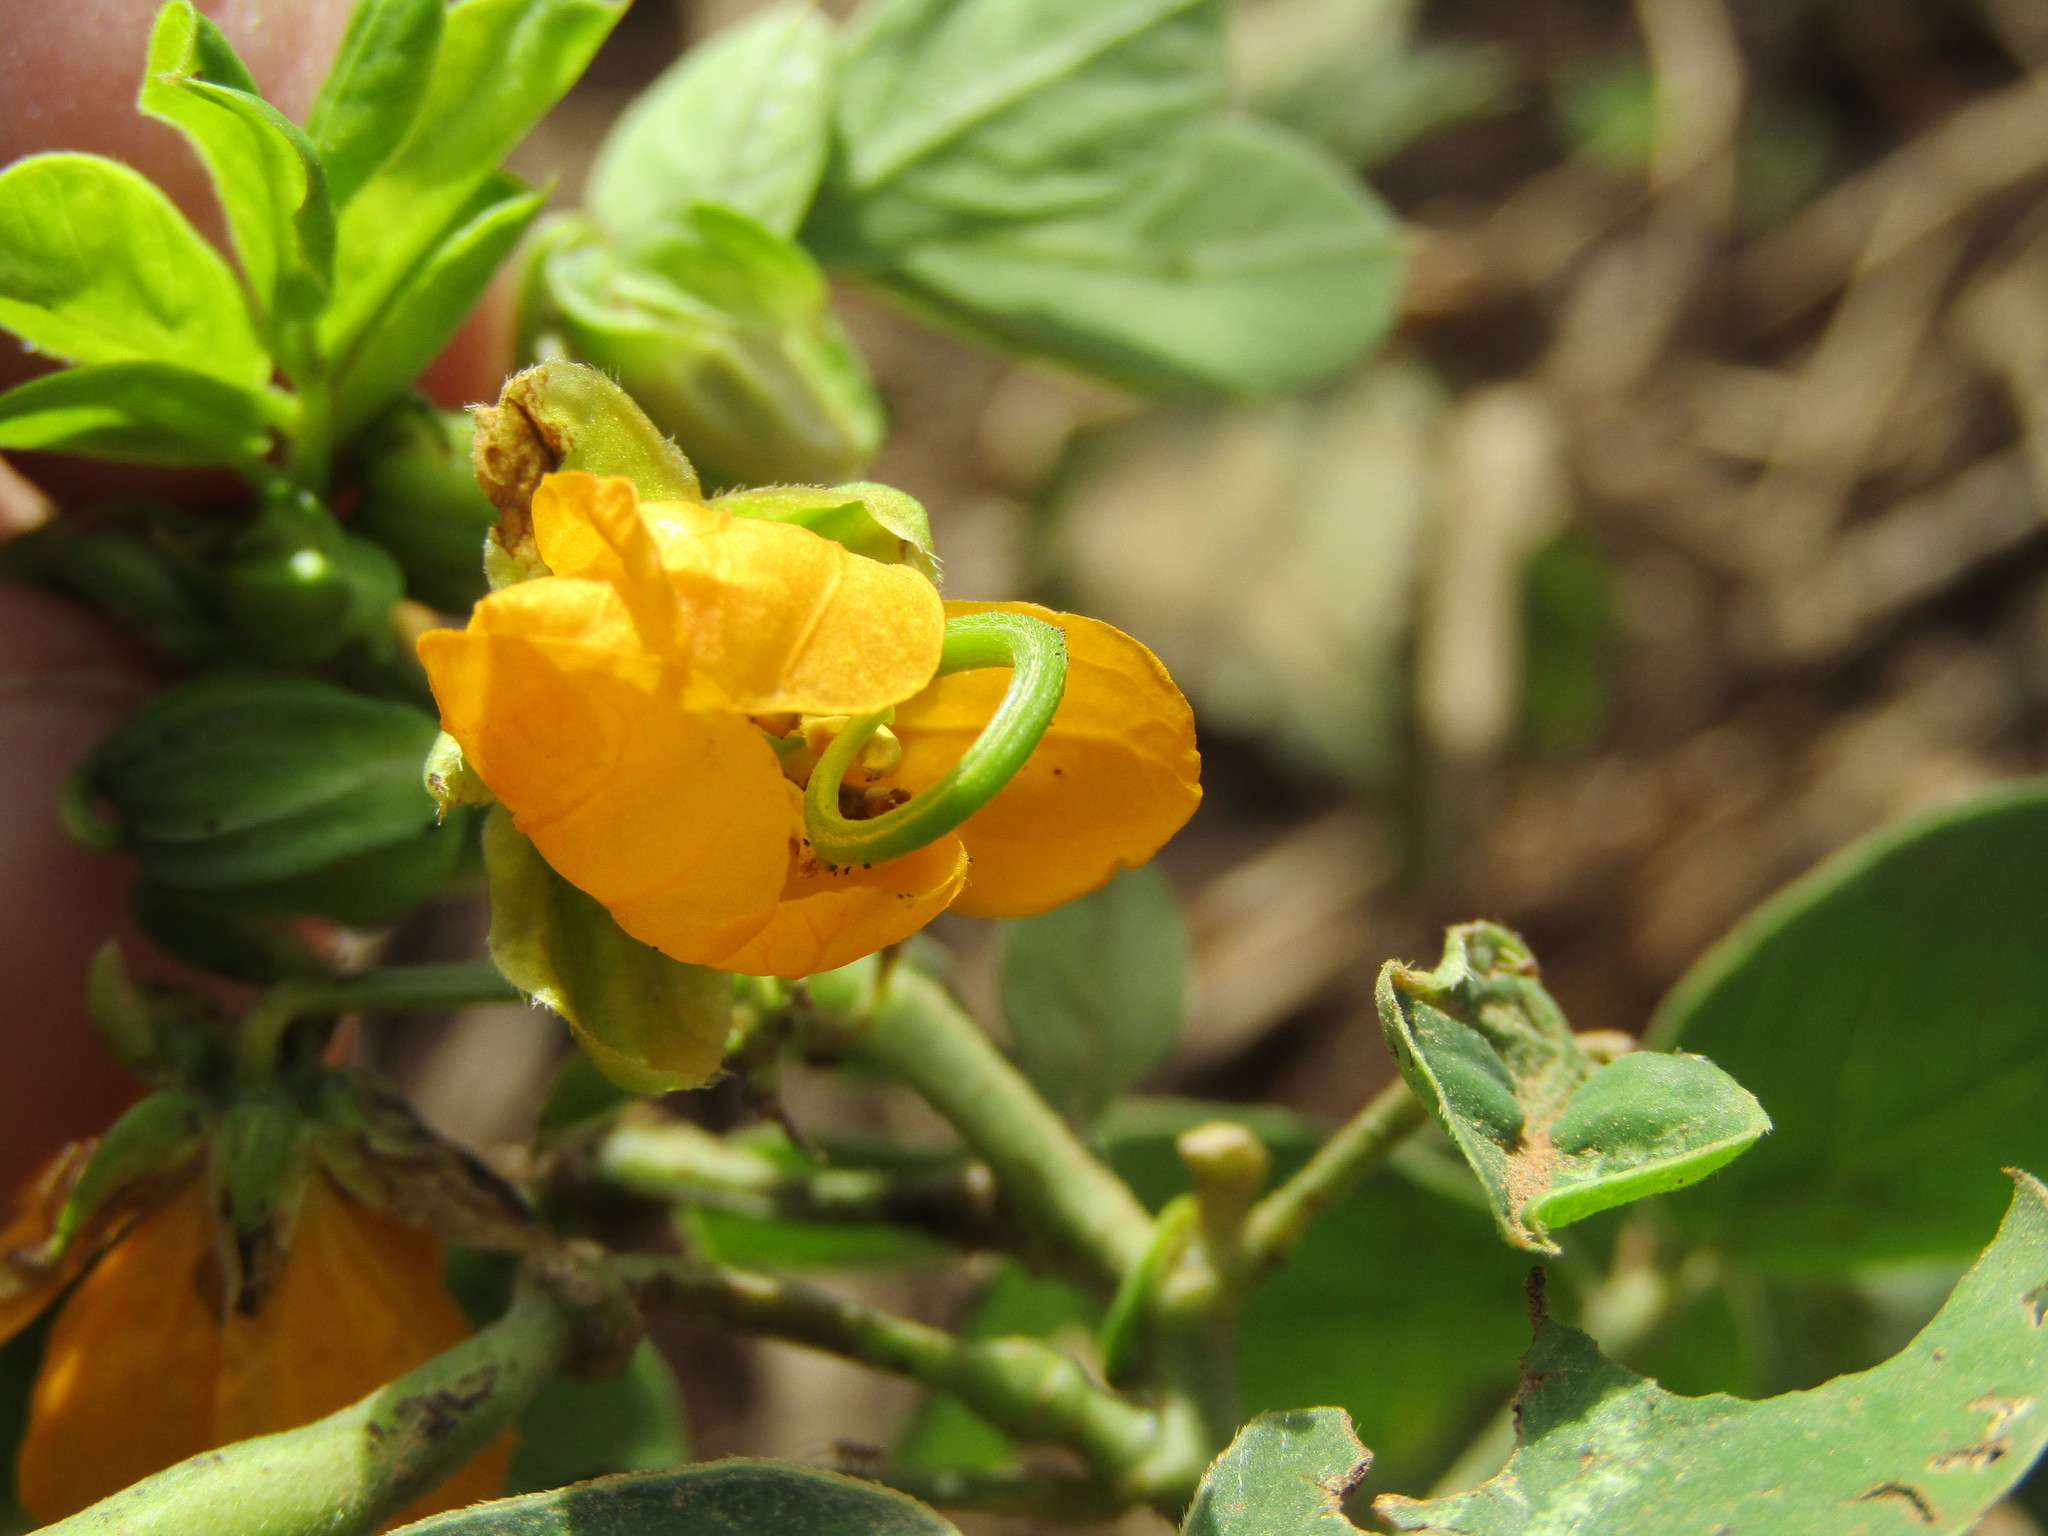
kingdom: Plantae
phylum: Tracheophyta
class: Magnoliopsida
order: Fabales
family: Fabaceae
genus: Senna
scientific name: Senna obtusifolia
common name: Java-bean
